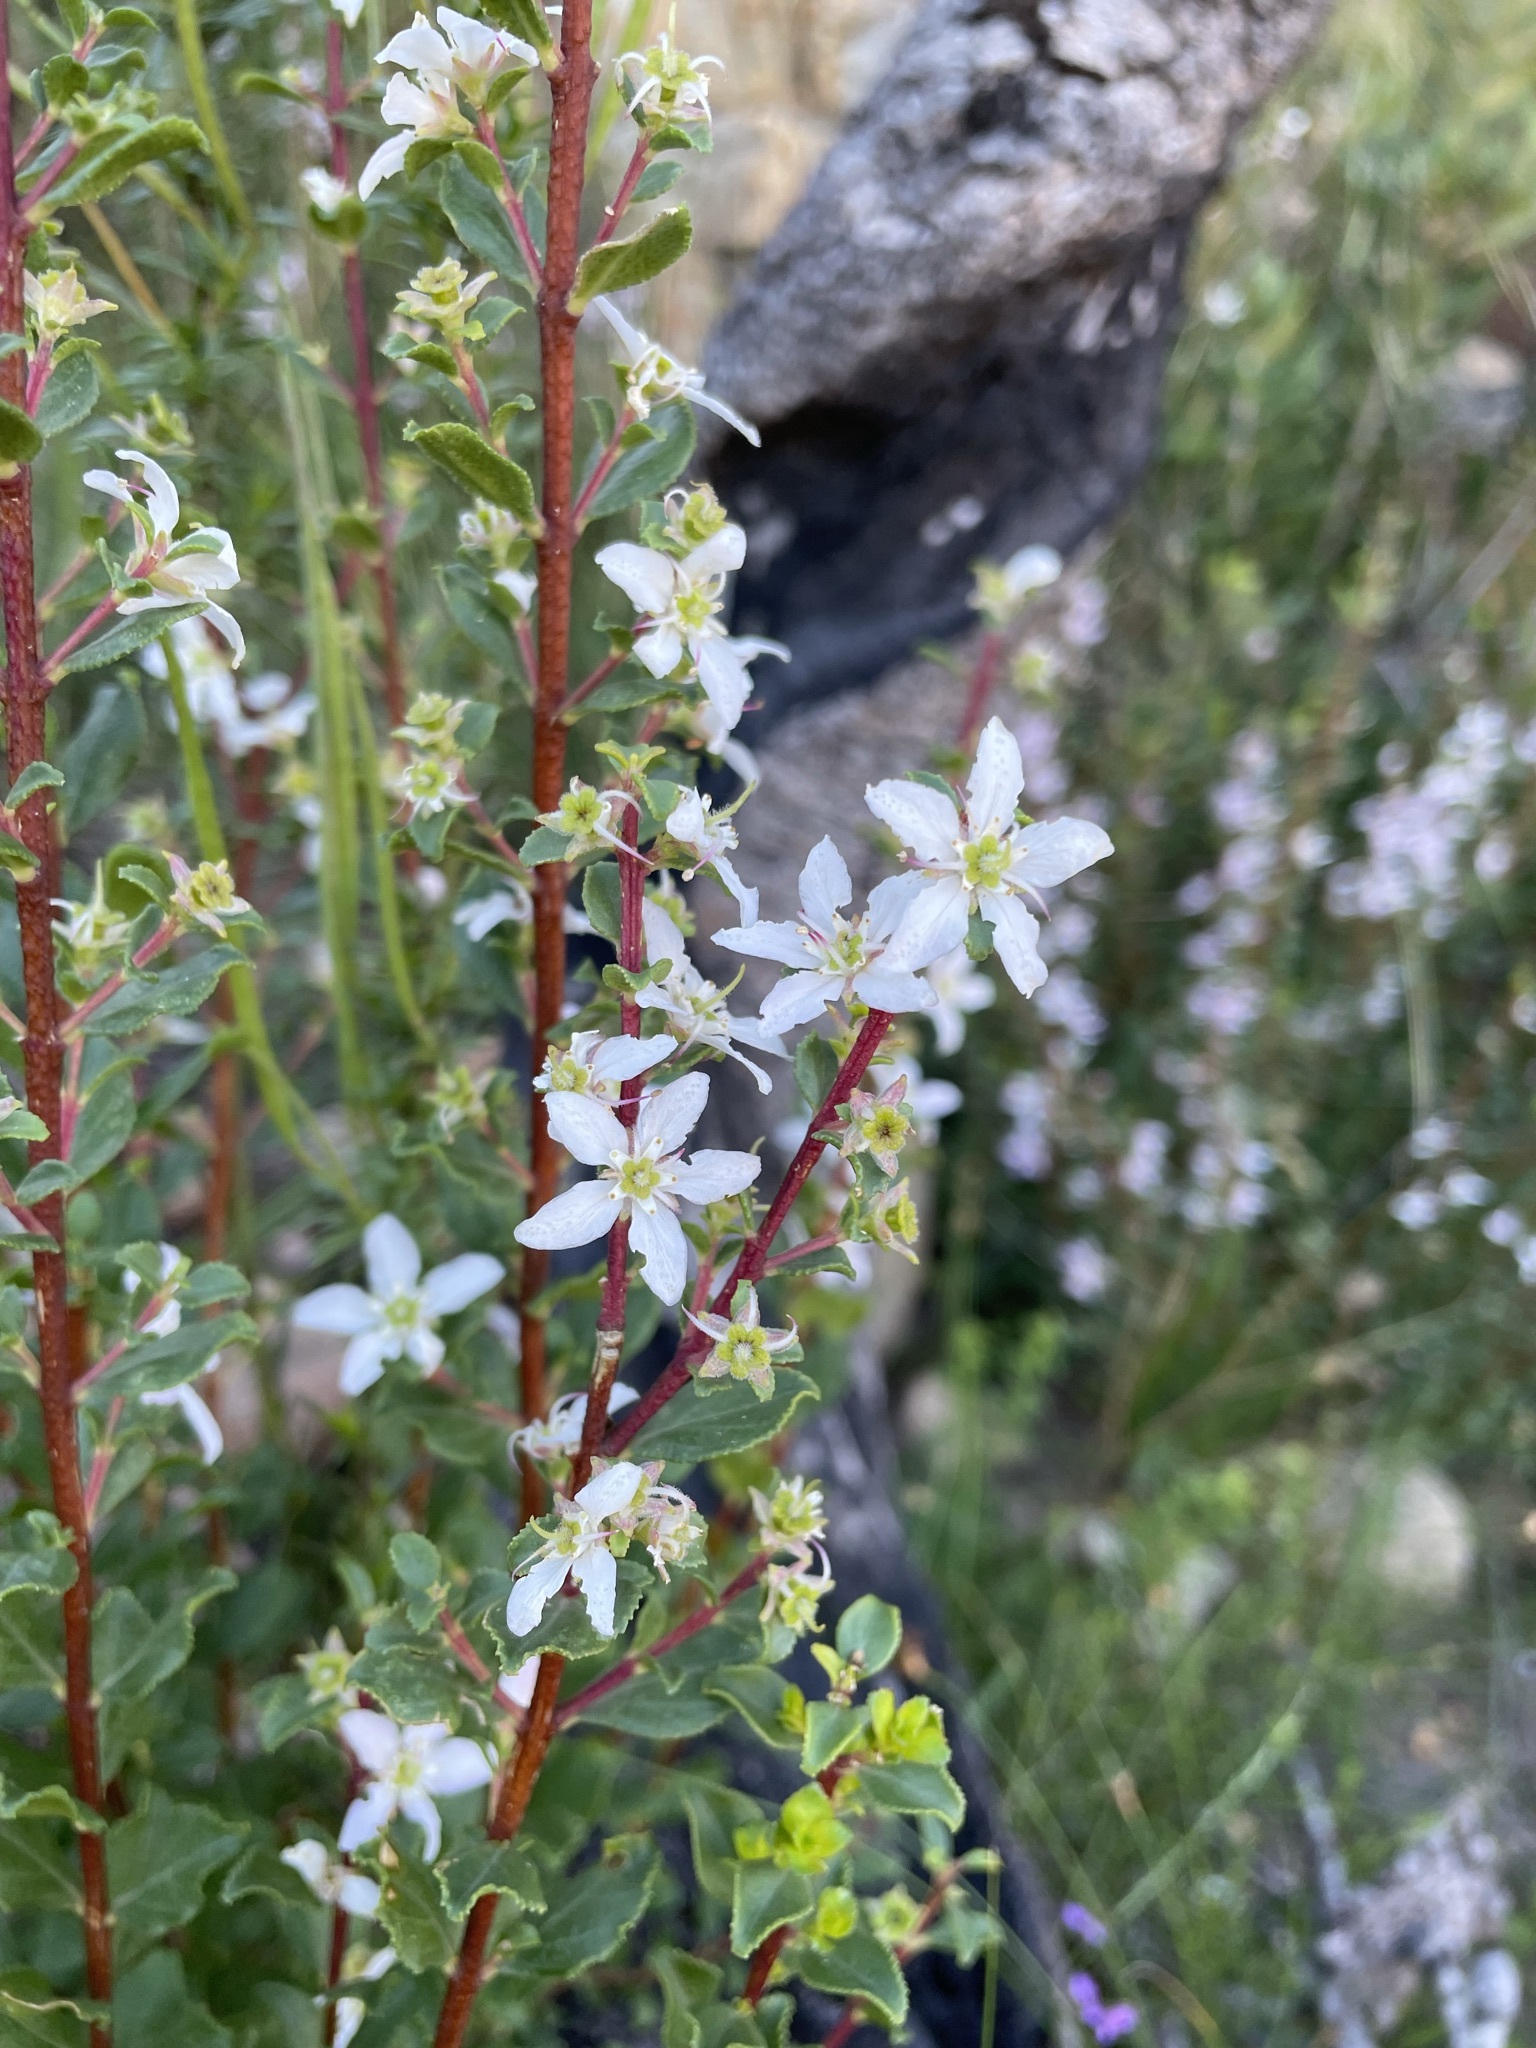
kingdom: Plantae
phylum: Tracheophyta
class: Magnoliopsida
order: Sapindales
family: Rutaceae
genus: Agathosma
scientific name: Agathosma betulina
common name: Mountain buchu
